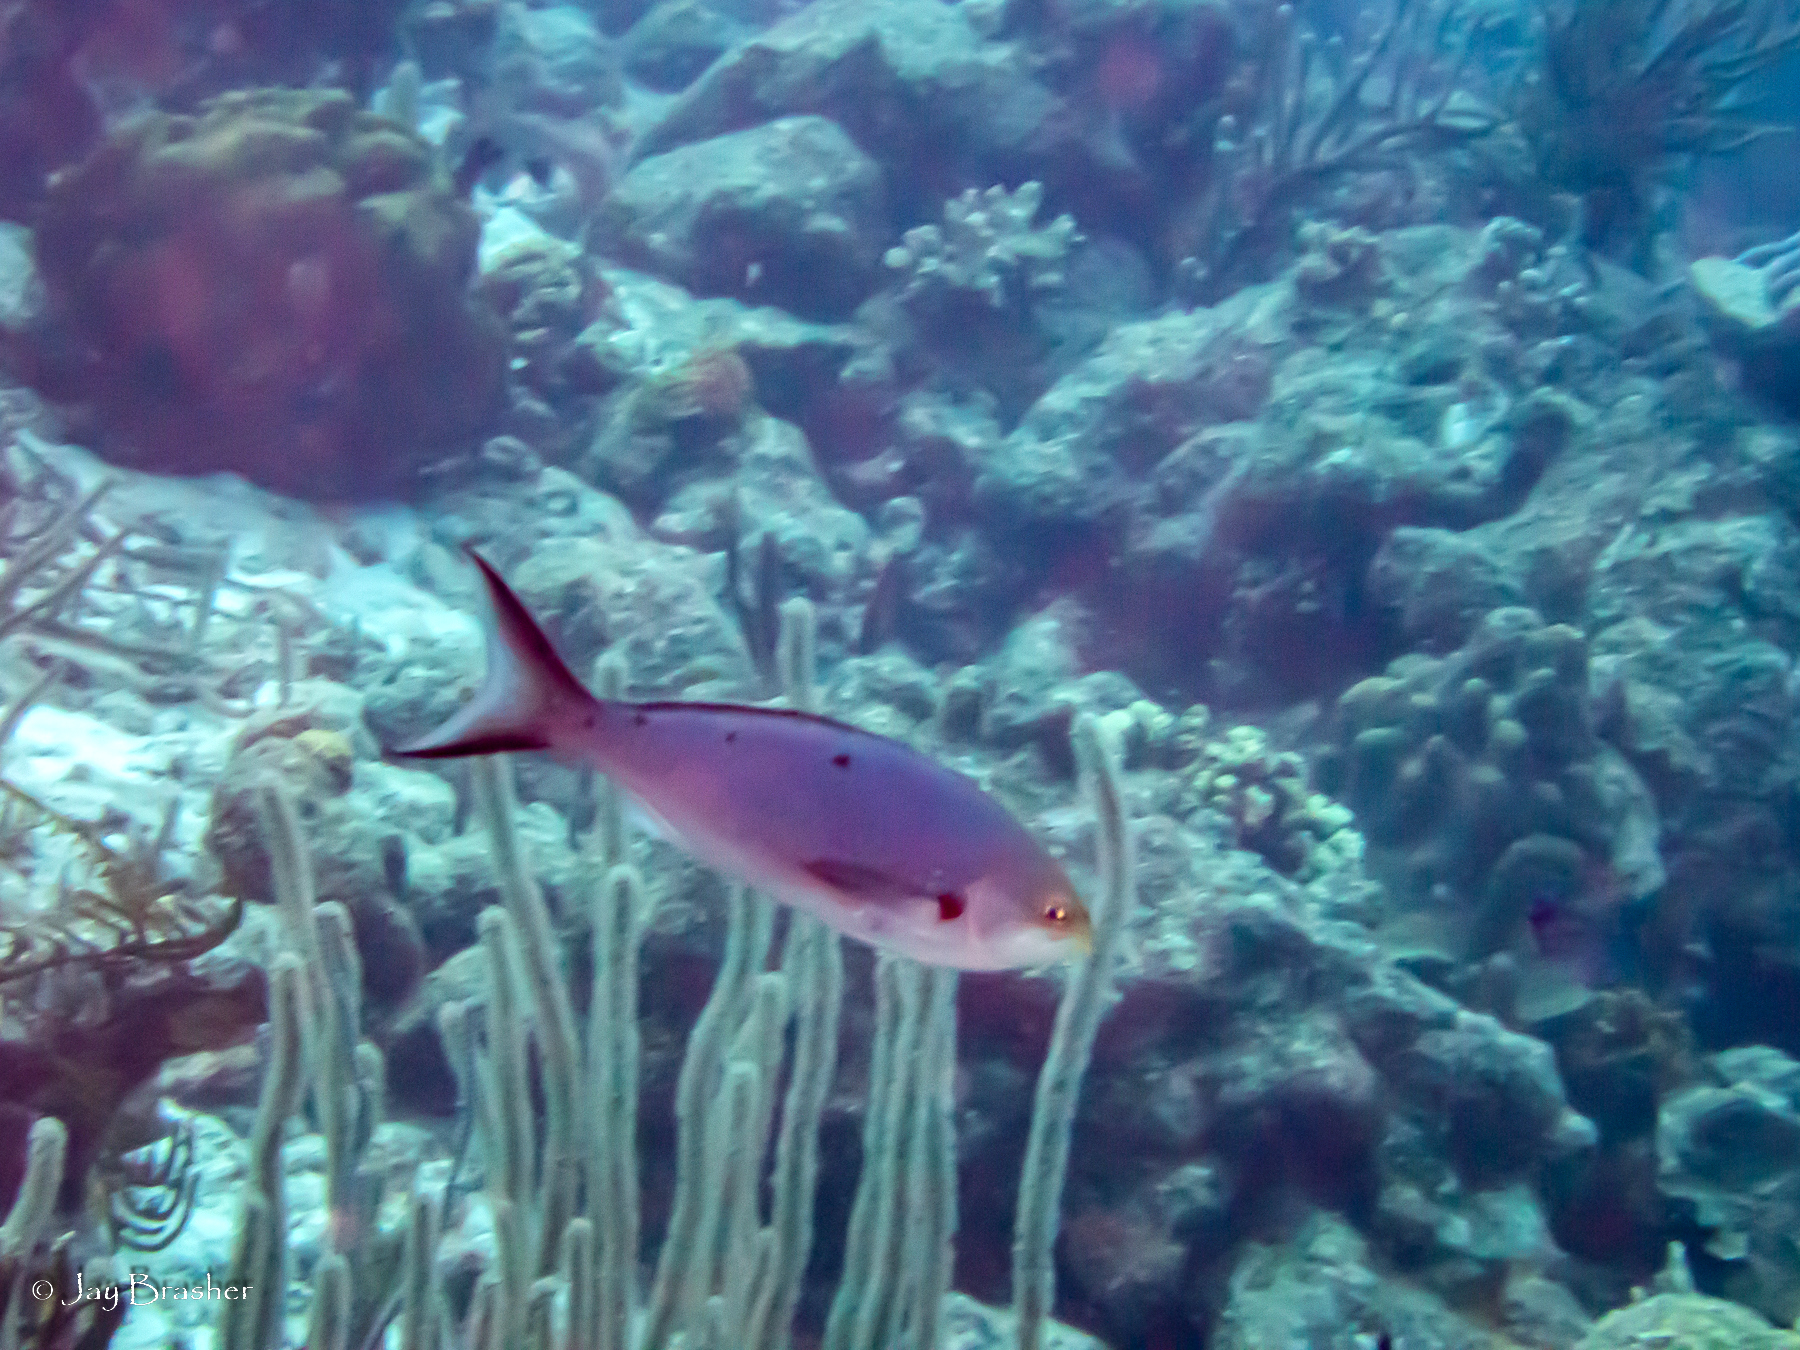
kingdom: Animalia
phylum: Chordata
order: Perciformes
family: Serranidae
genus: Paranthias
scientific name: Paranthias furcifer
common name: Creole-fish
